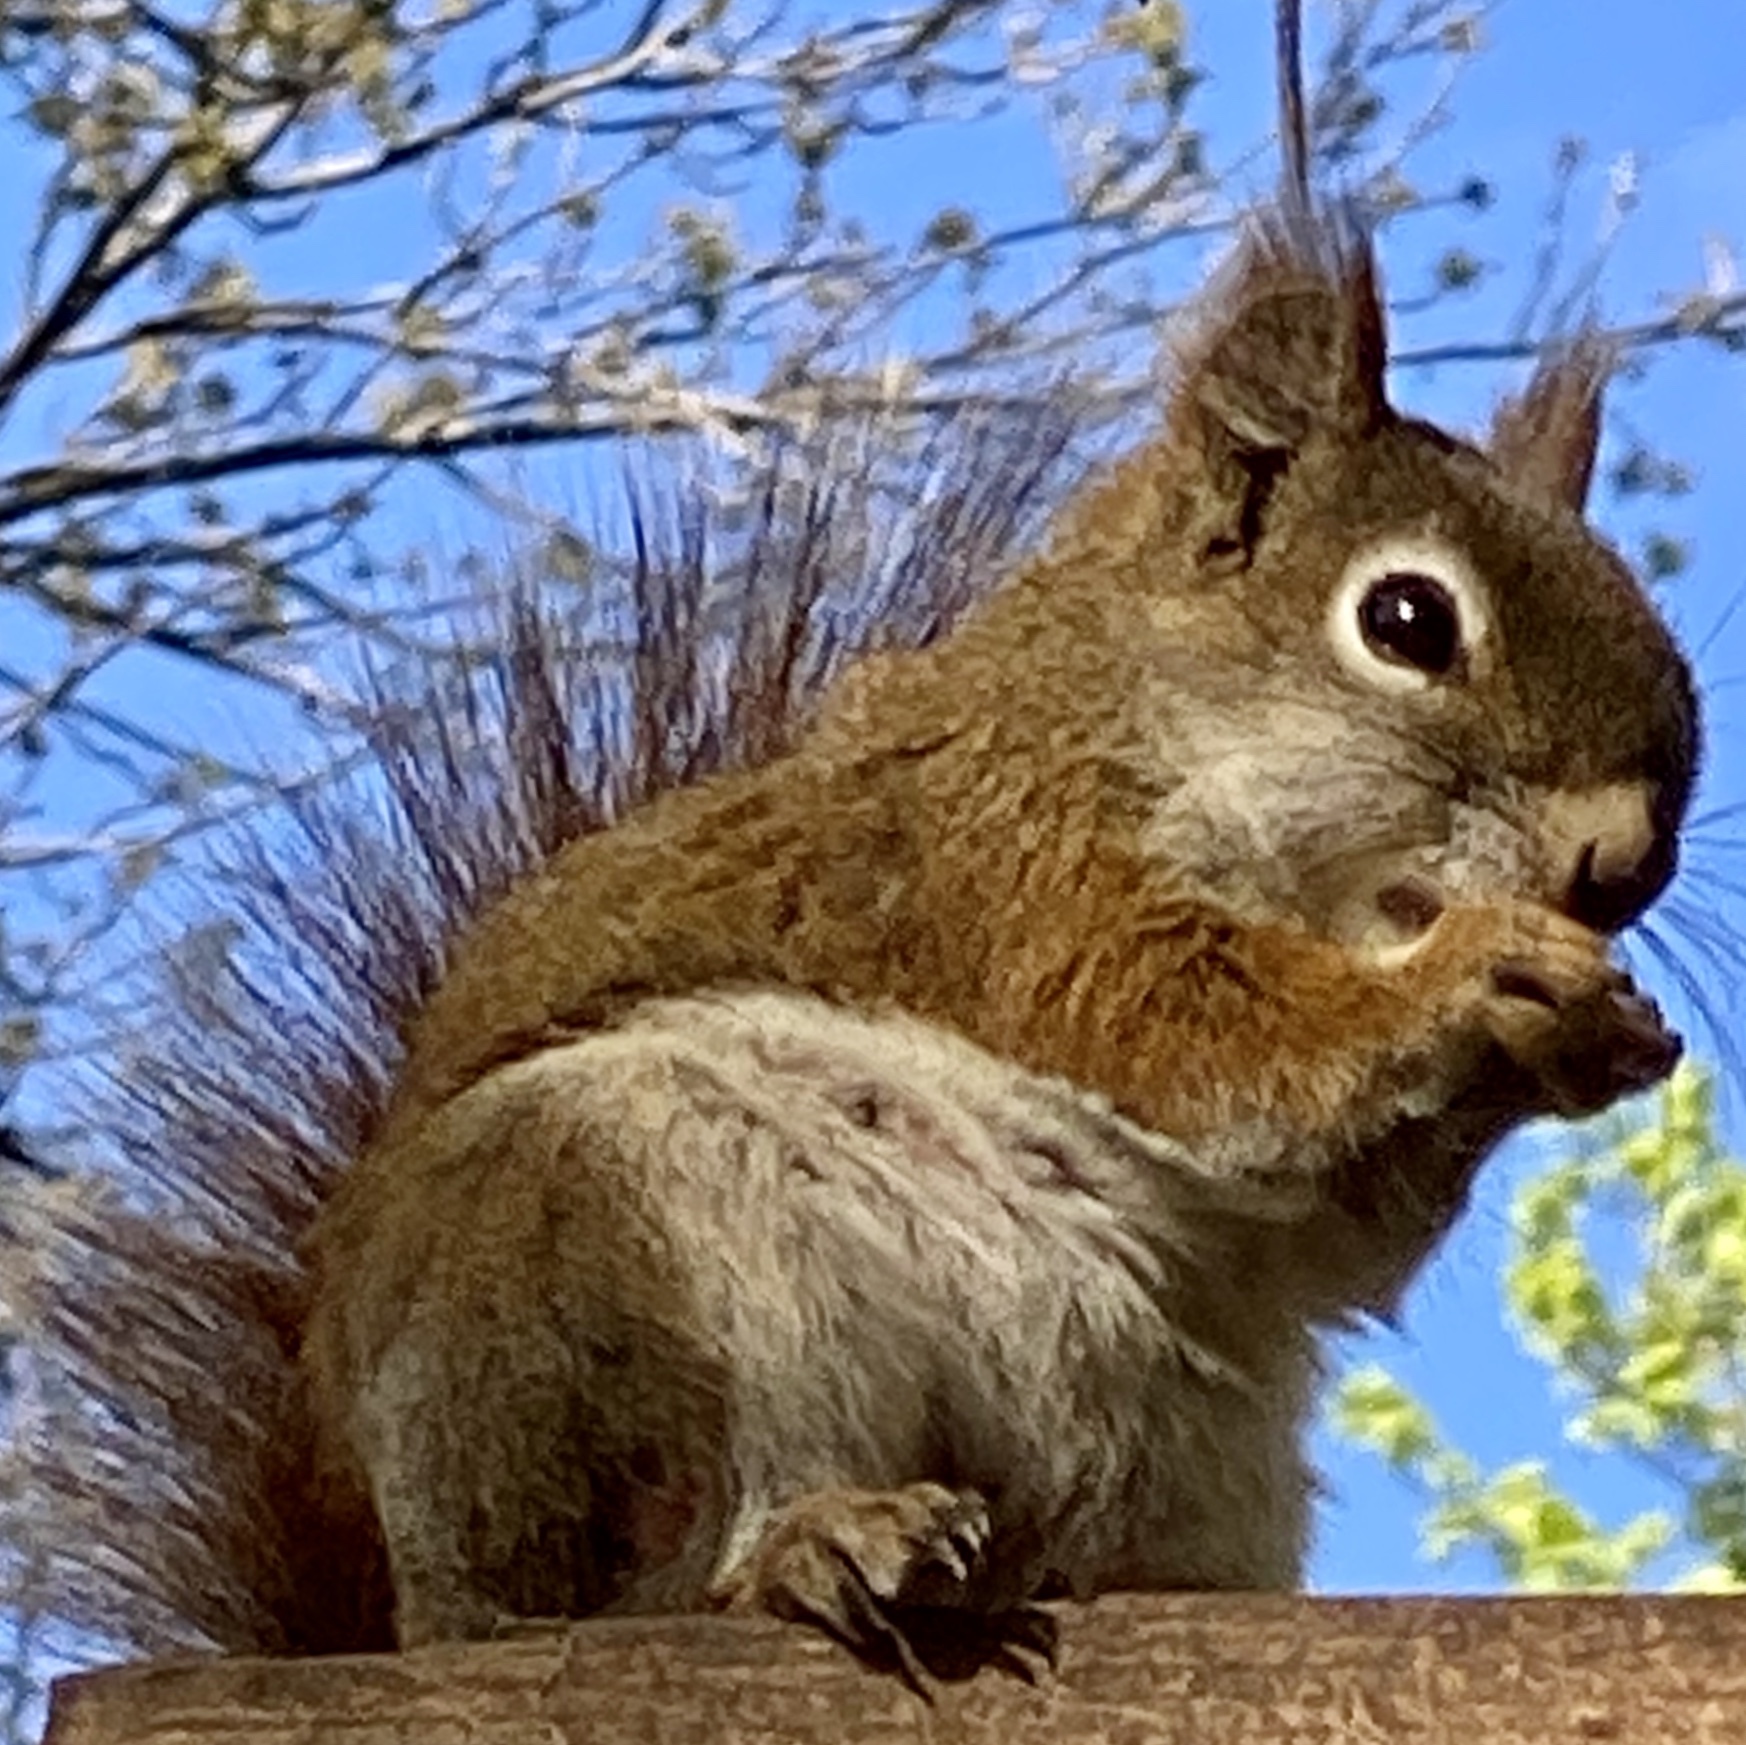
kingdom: Animalia
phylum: Chordata
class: Mammalia
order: Rodentia
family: Sciuridae
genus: Tamiasciurus
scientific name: Tamiasciurus hudsonicus
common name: Red squirrel
